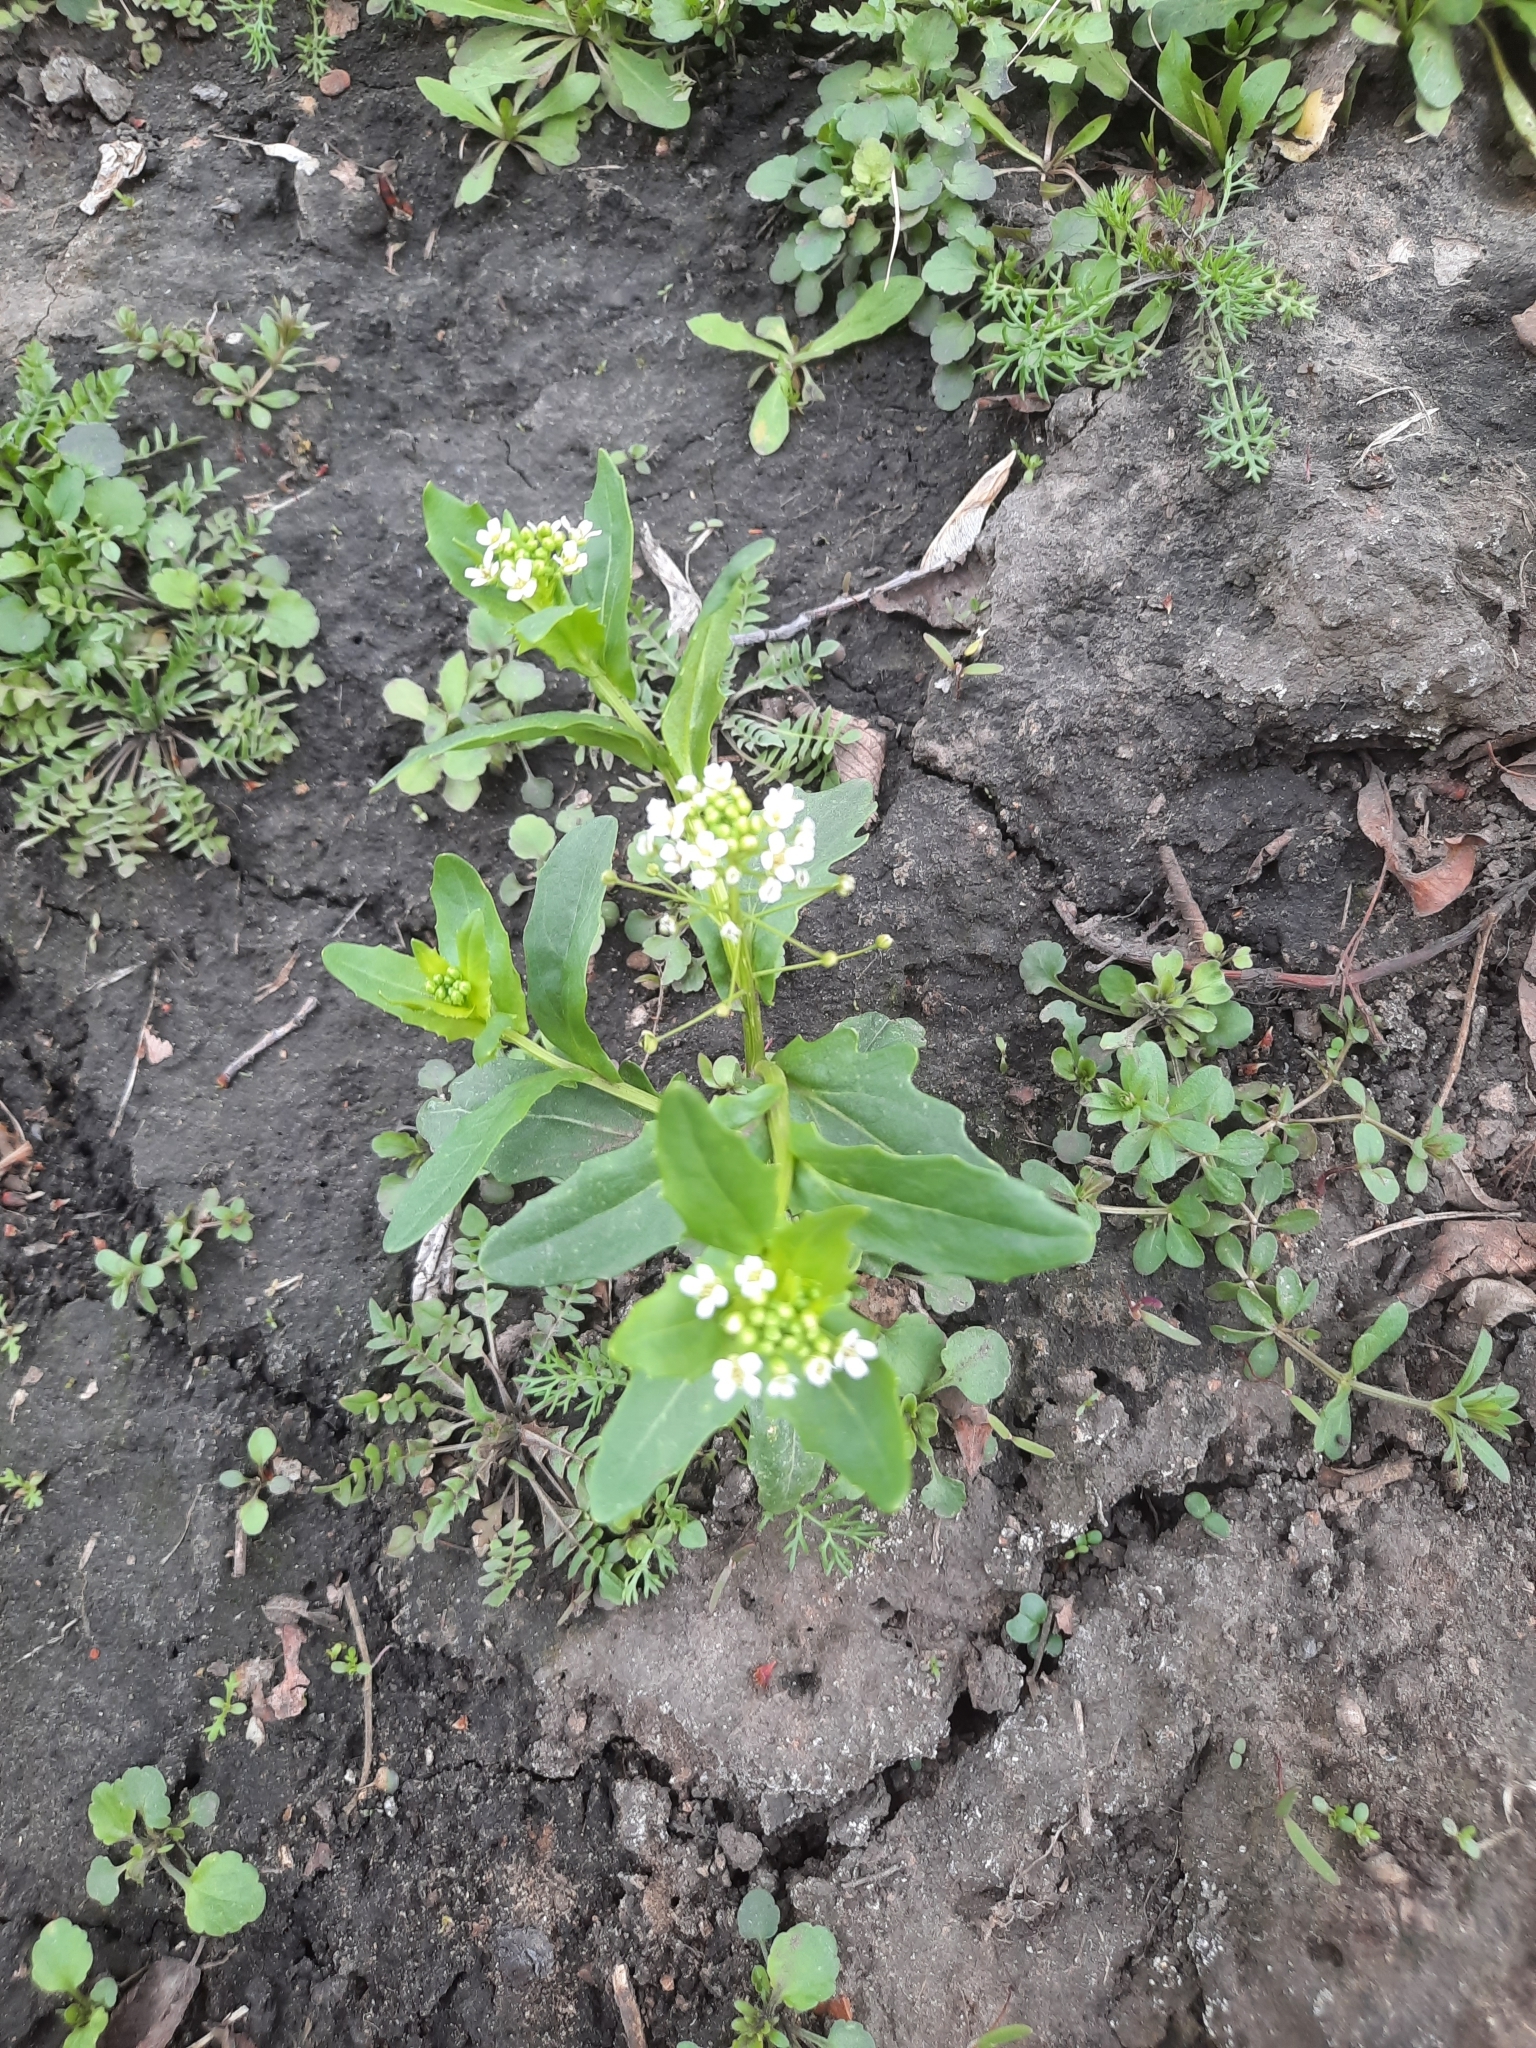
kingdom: Plantae
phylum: Tracheophyta
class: Magnoliopsida
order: Brassicales
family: Brassicaceae
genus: Thlaspi
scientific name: Thlaspi arvense
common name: Field pennycress
